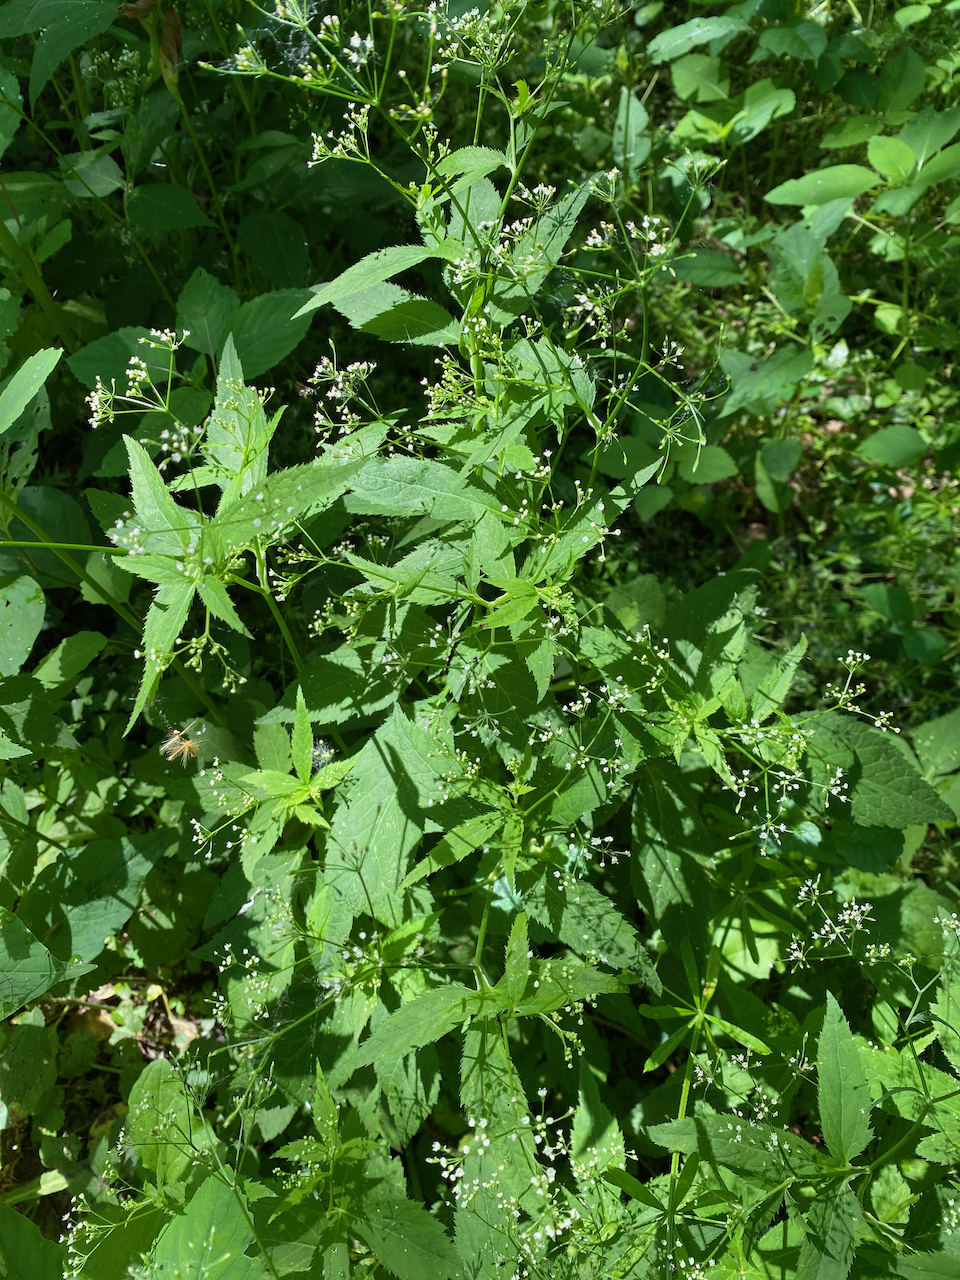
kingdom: Plantae
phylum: Tracheophyta
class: Magnoliopsida
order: Apiales
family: Apiaceae
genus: Cryptotaenia
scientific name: Cryptotaenia canadensis
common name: Honewort
